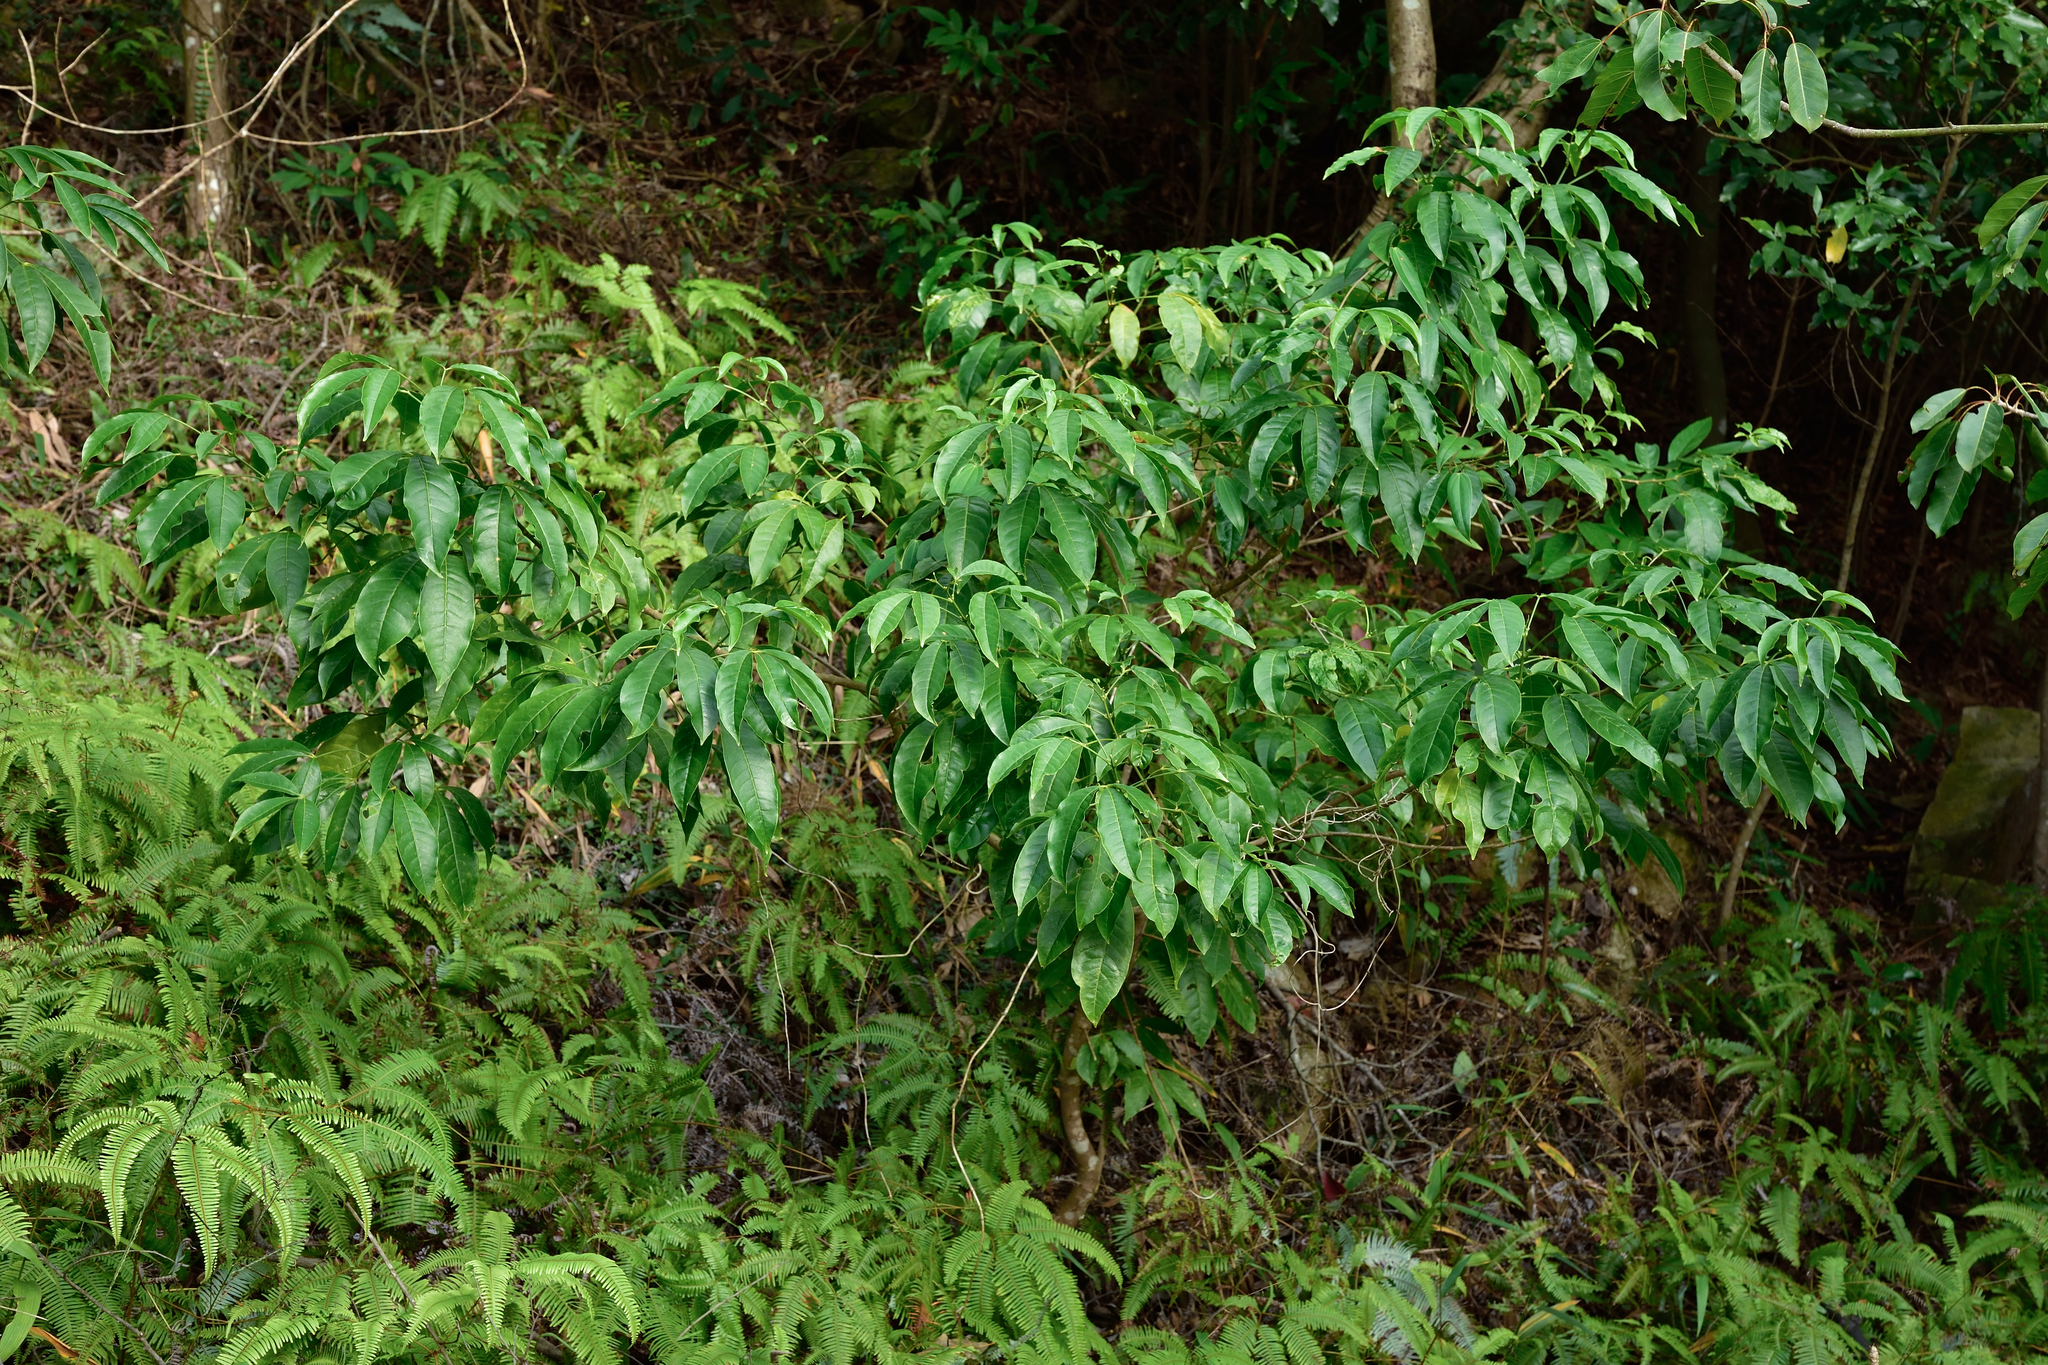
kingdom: Plantae
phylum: Tracheophyta
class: Magnoliopsida
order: Sapindales
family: Rutaceae
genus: Melicope
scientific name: Melicope pteleifolia
